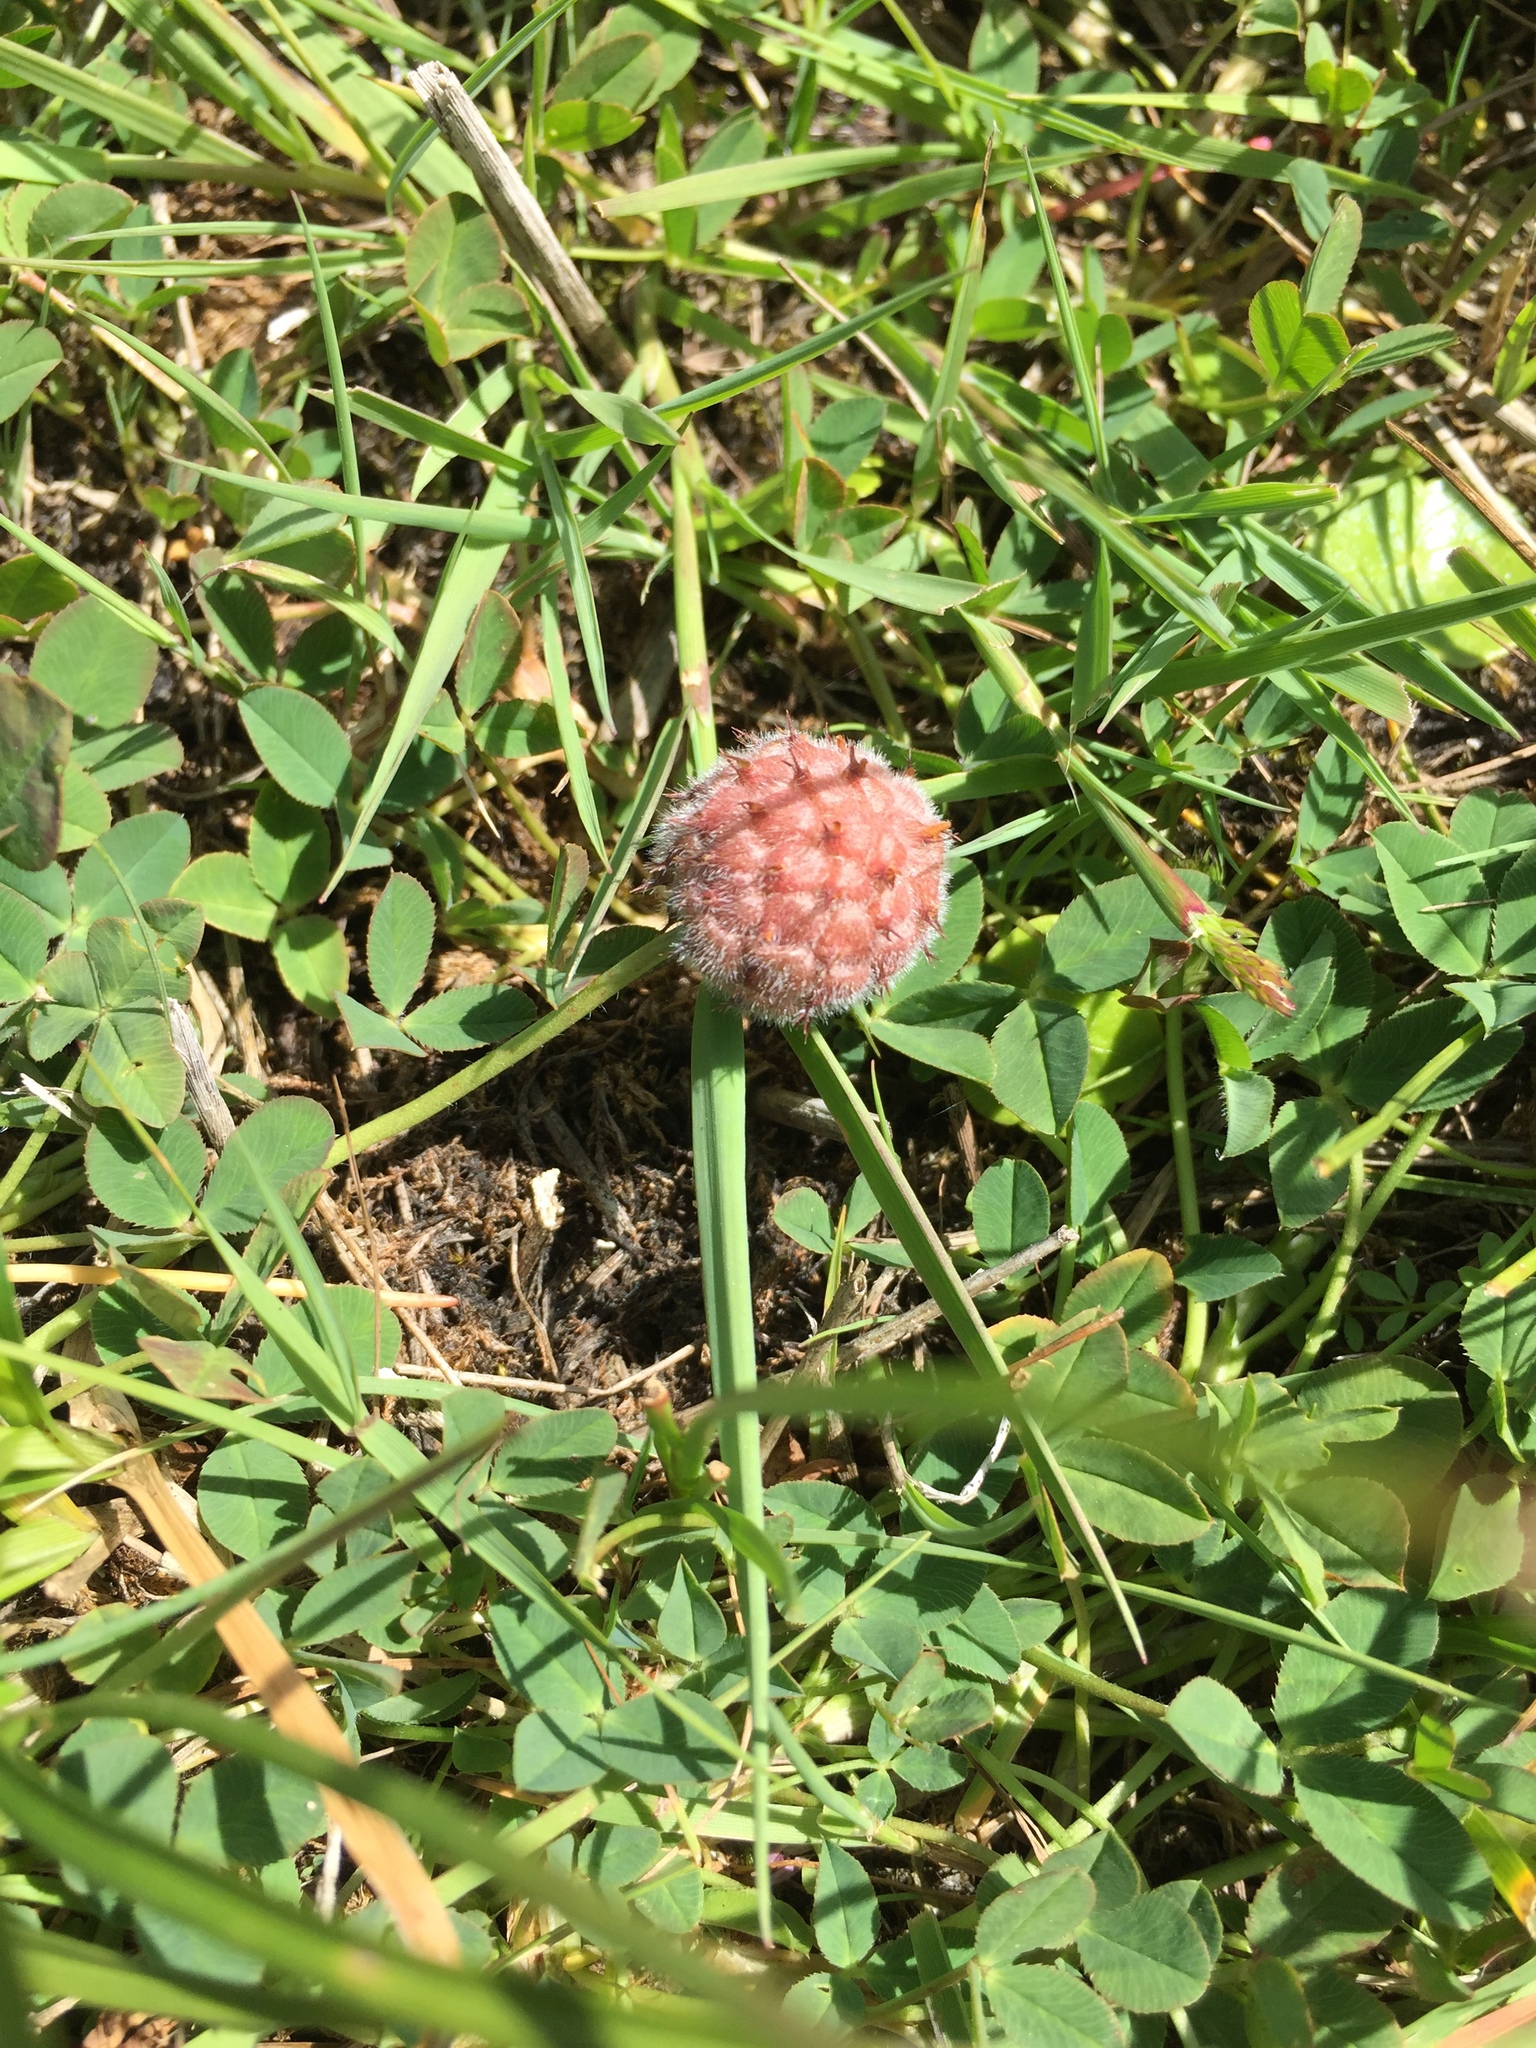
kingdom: Plantae
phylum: Tracheophyta
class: Magnoliopsida
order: Fabales
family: Fabaceae
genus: Trifolium
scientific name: Trifolium fragiferum
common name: Strawberry clover
